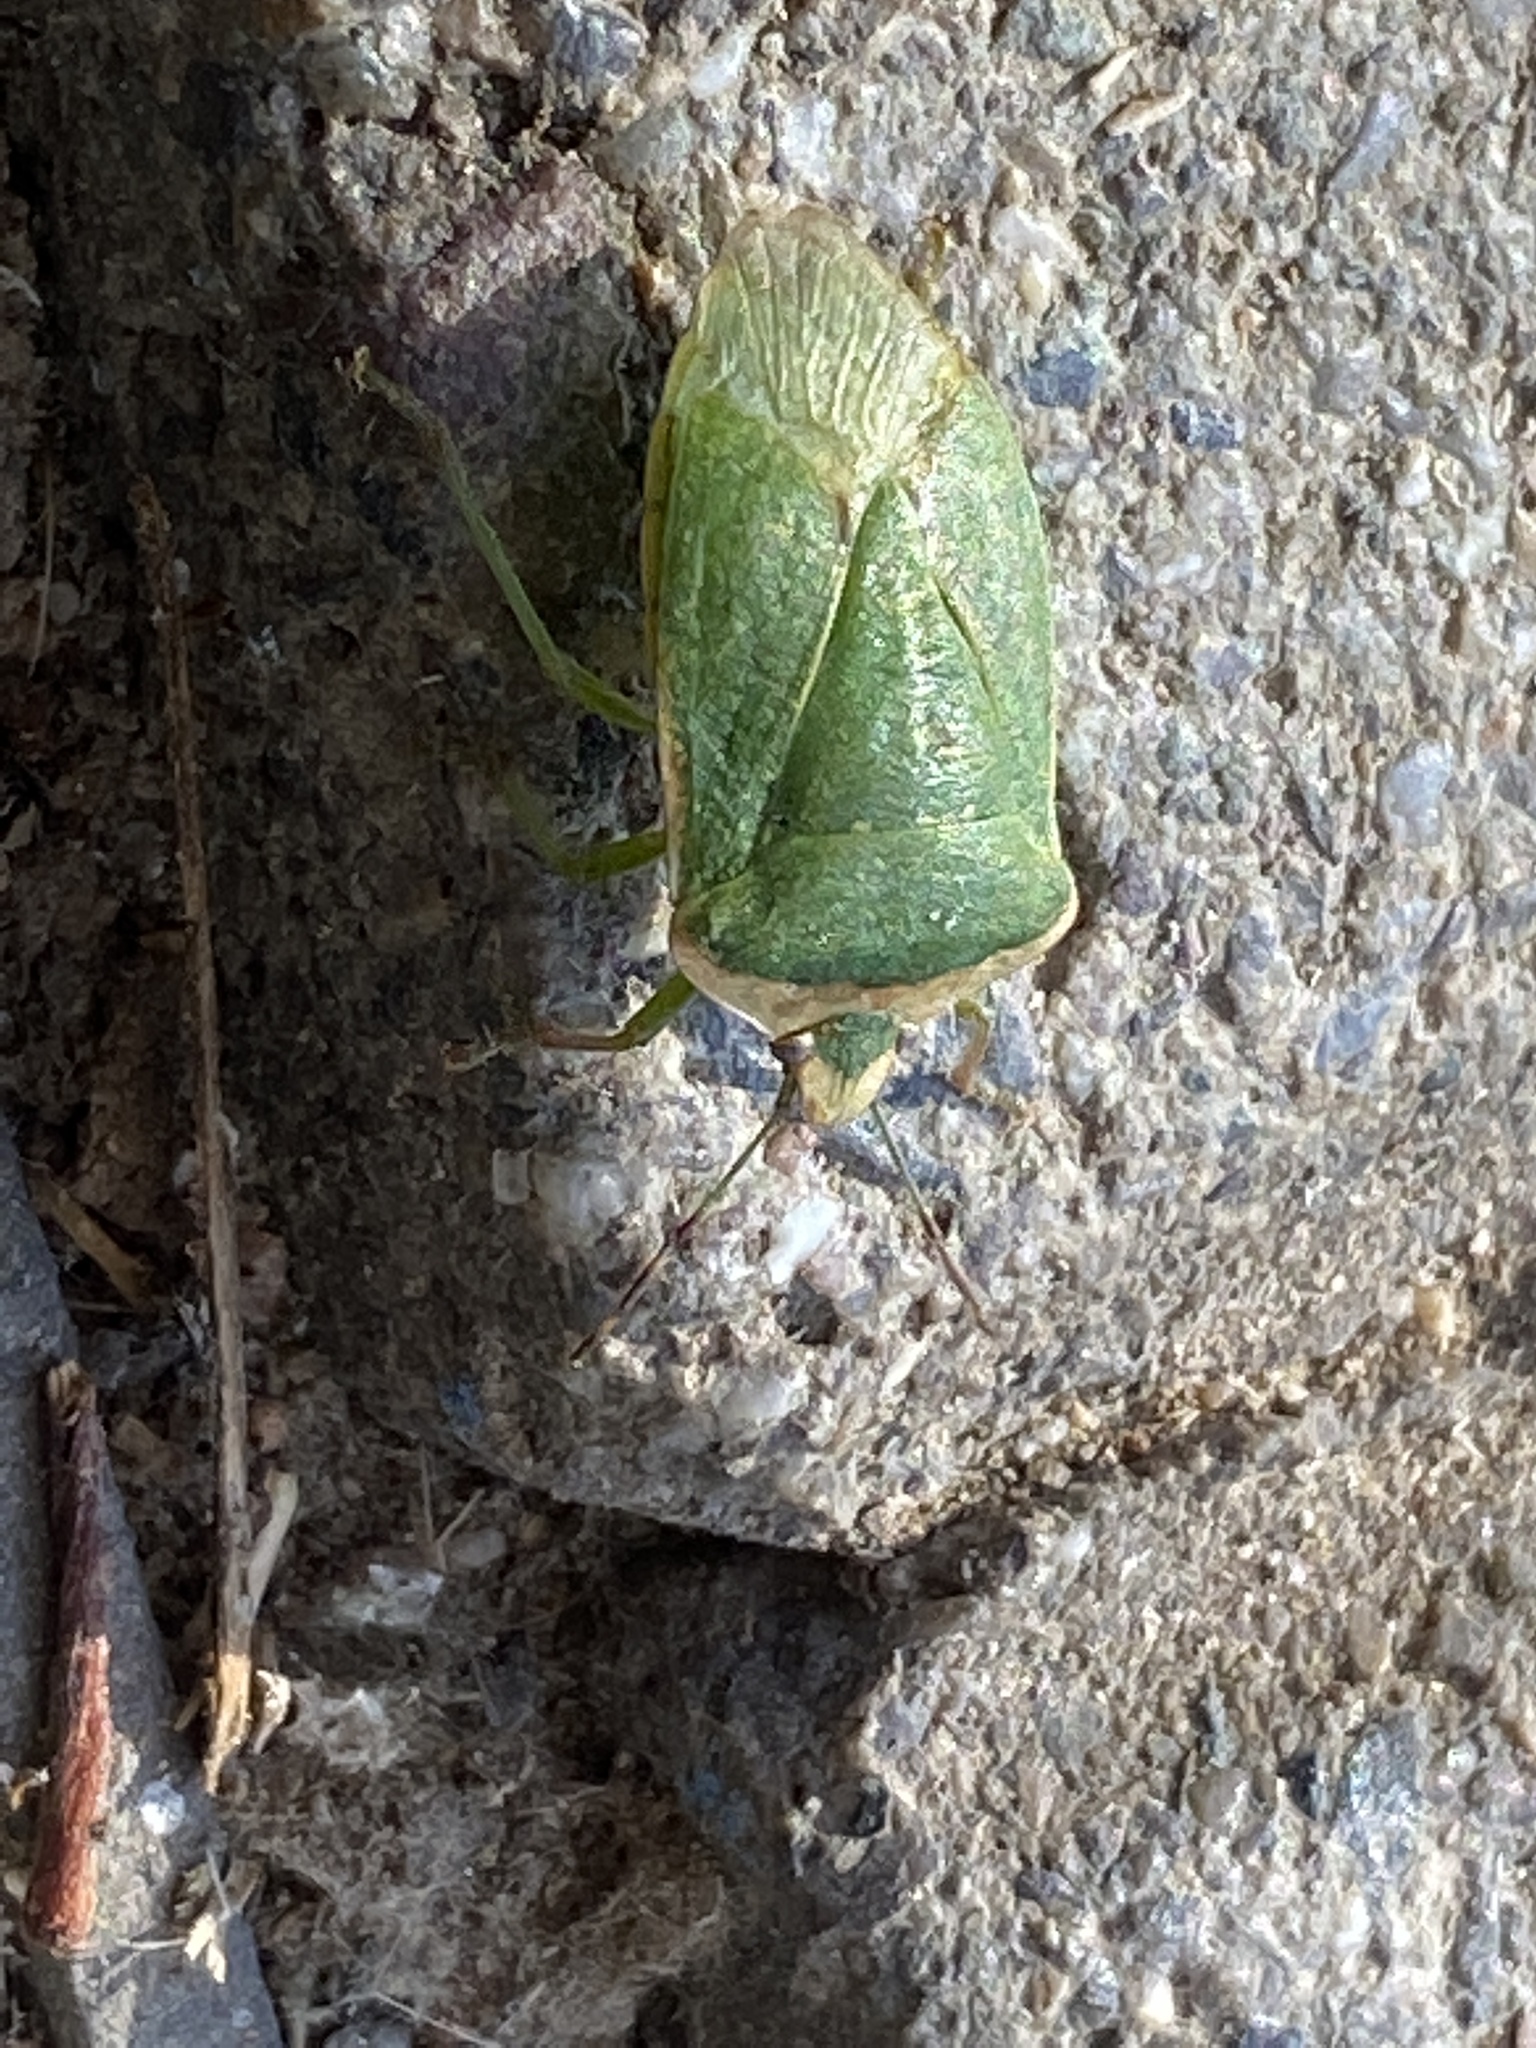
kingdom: Animalia
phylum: Arthropoda
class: Insecta
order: Hemiptera
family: Pentatomidae
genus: Nezara
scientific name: Nezara viridula
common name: Southern green stink bug
